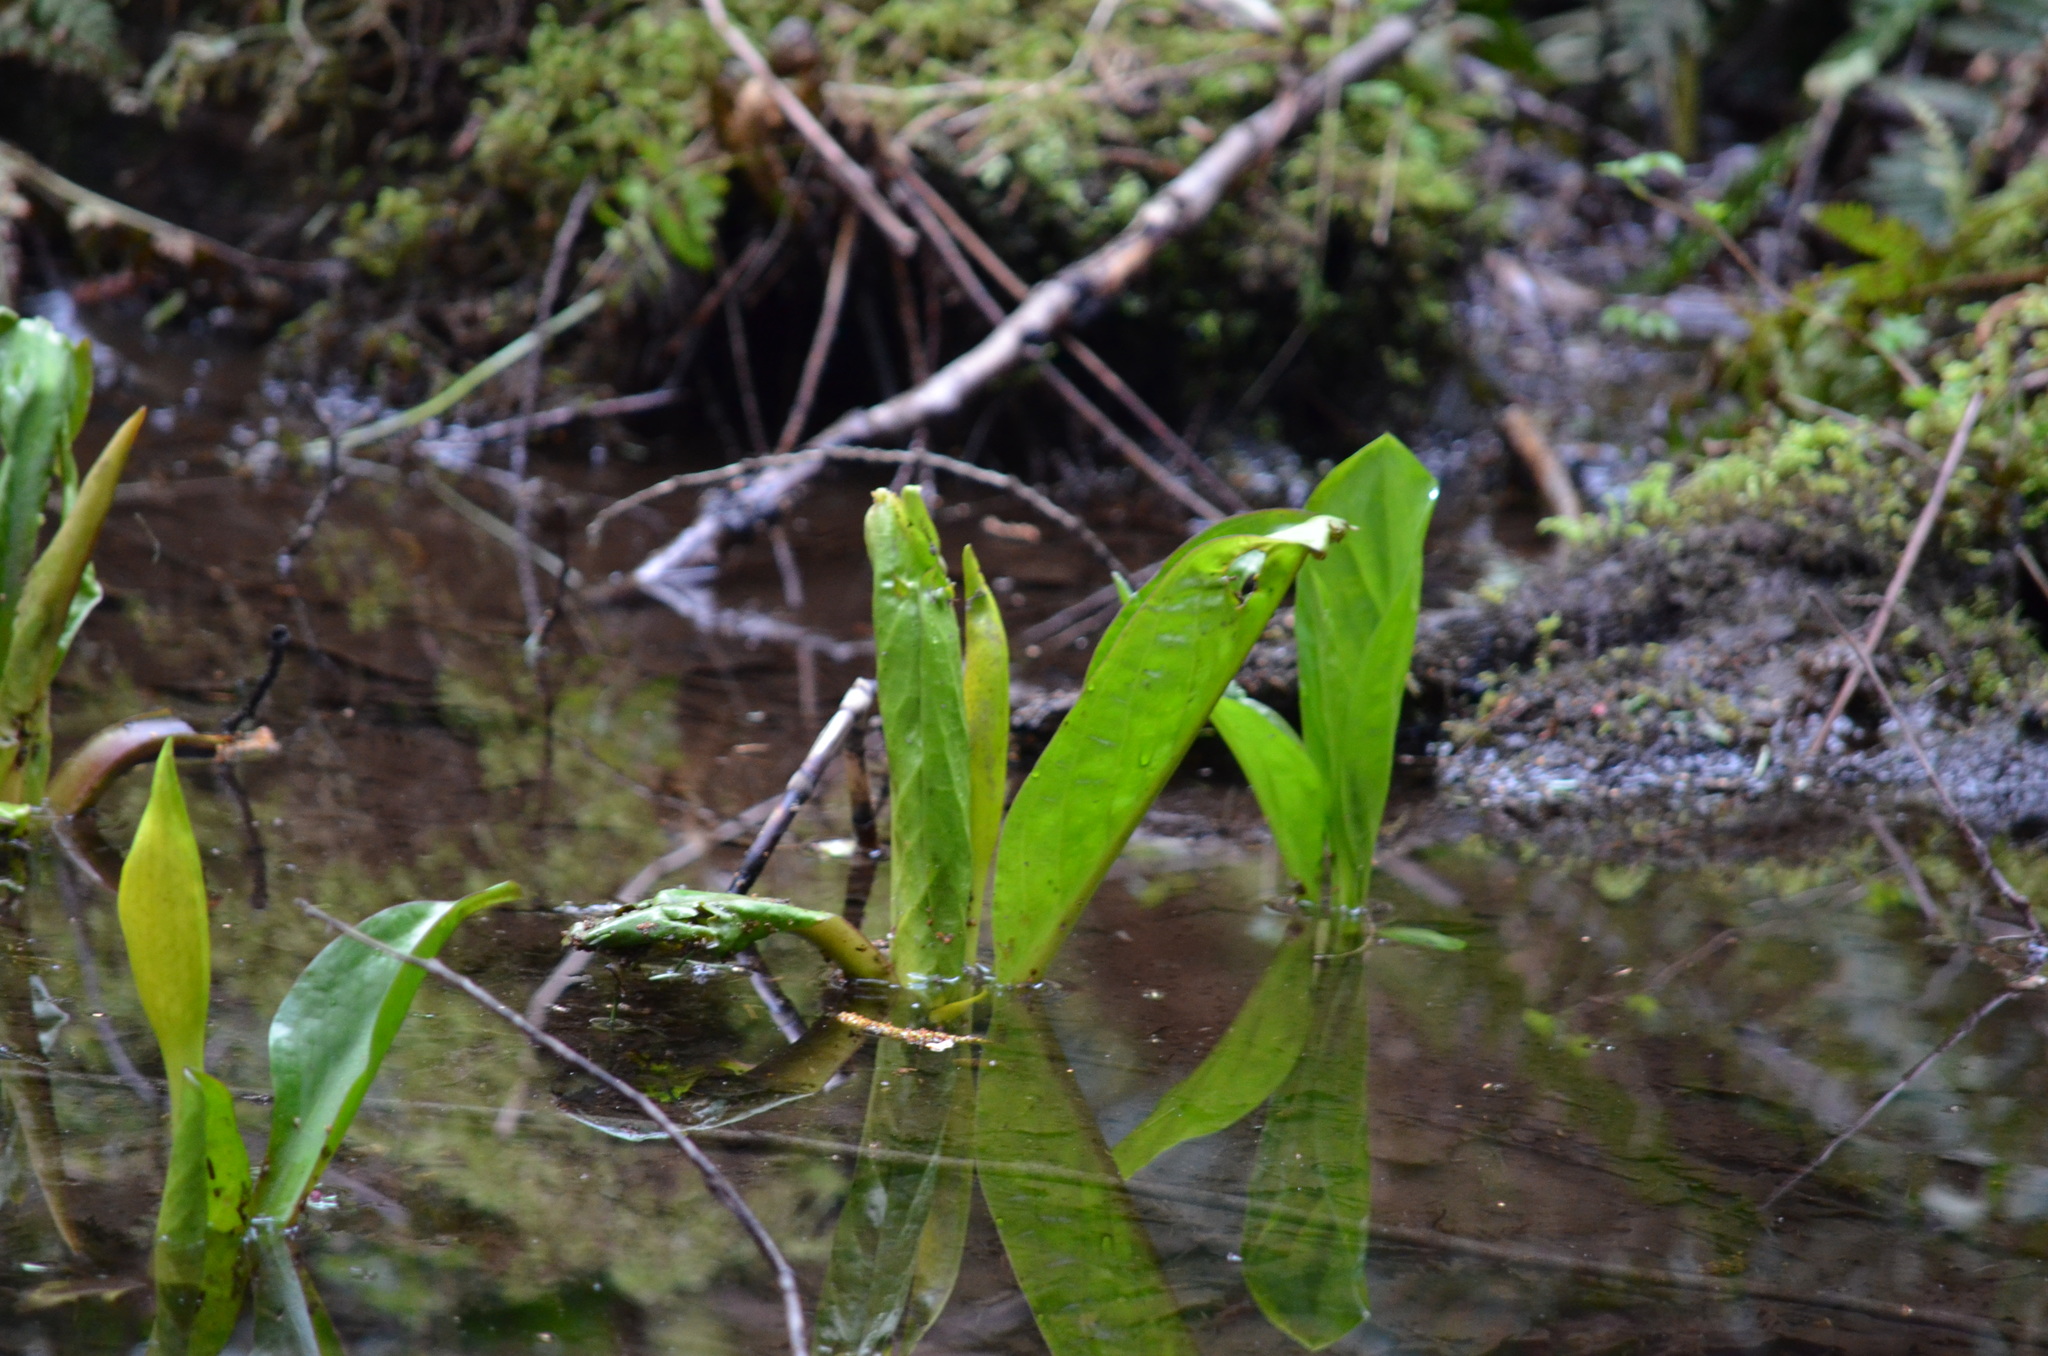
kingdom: Plantae
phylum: Tracheophyta
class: Liliopsida
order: Alismatales
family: Araceae
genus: Lysichiton
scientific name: Lysichiton americanus
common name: American skunk cabbage
